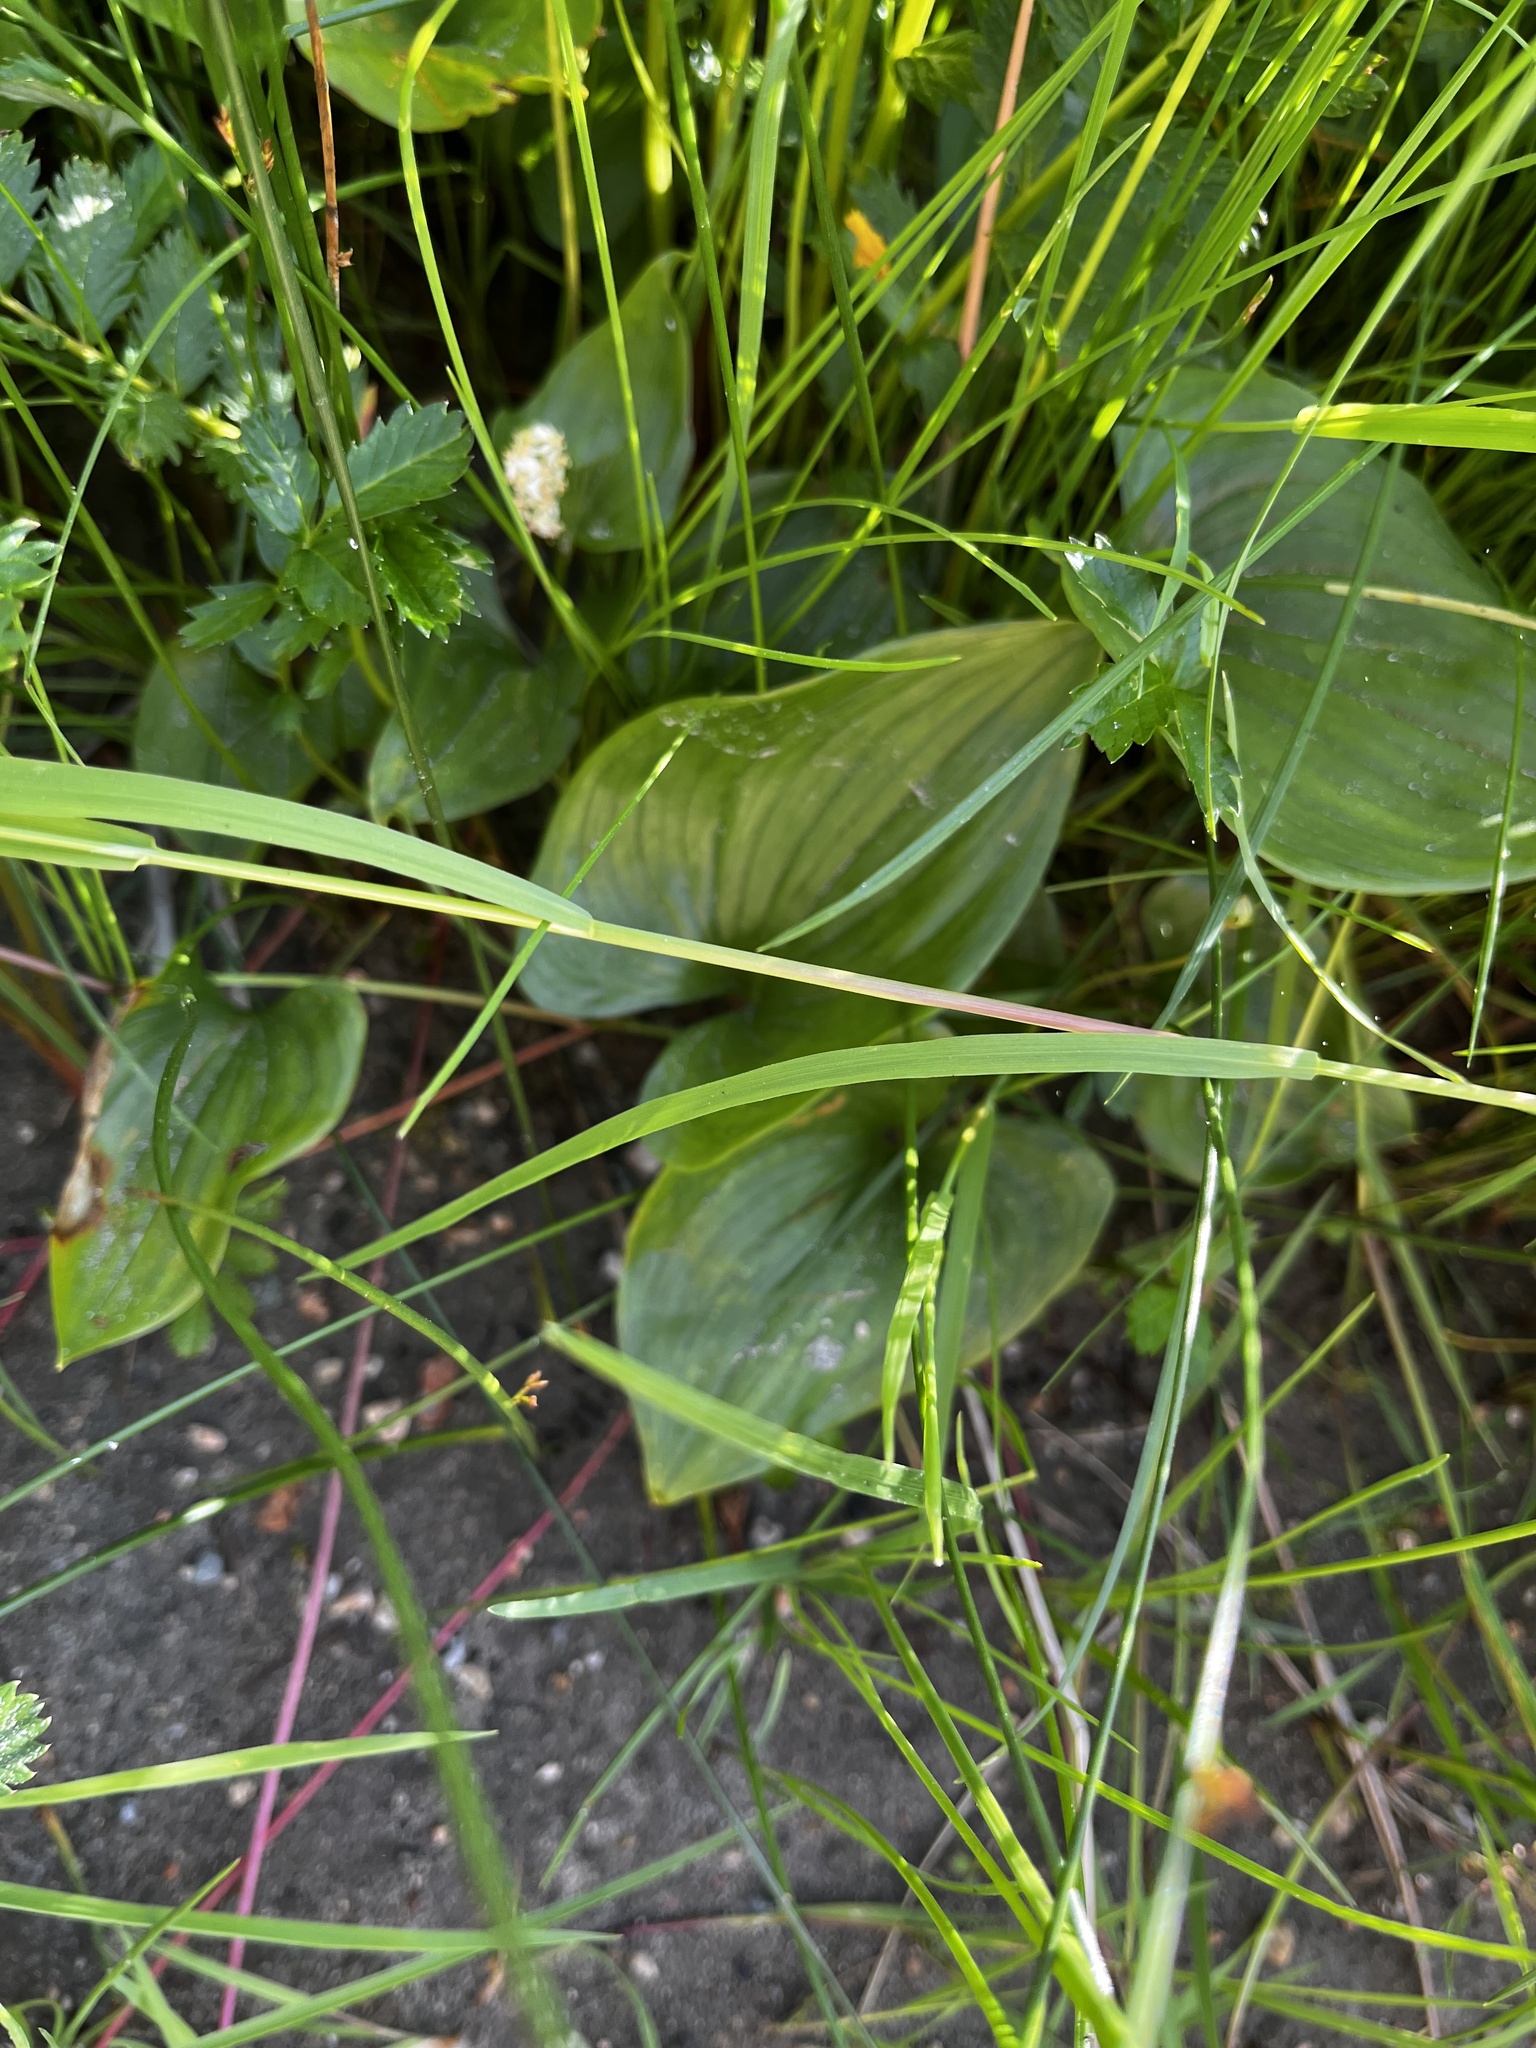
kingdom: Plantae
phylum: Tracheophyta
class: Liliopsida
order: Asparagales
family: Asparagaceae
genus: Maianthemum
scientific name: Maianthemum dilatatum
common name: False lily-of-the-valley
